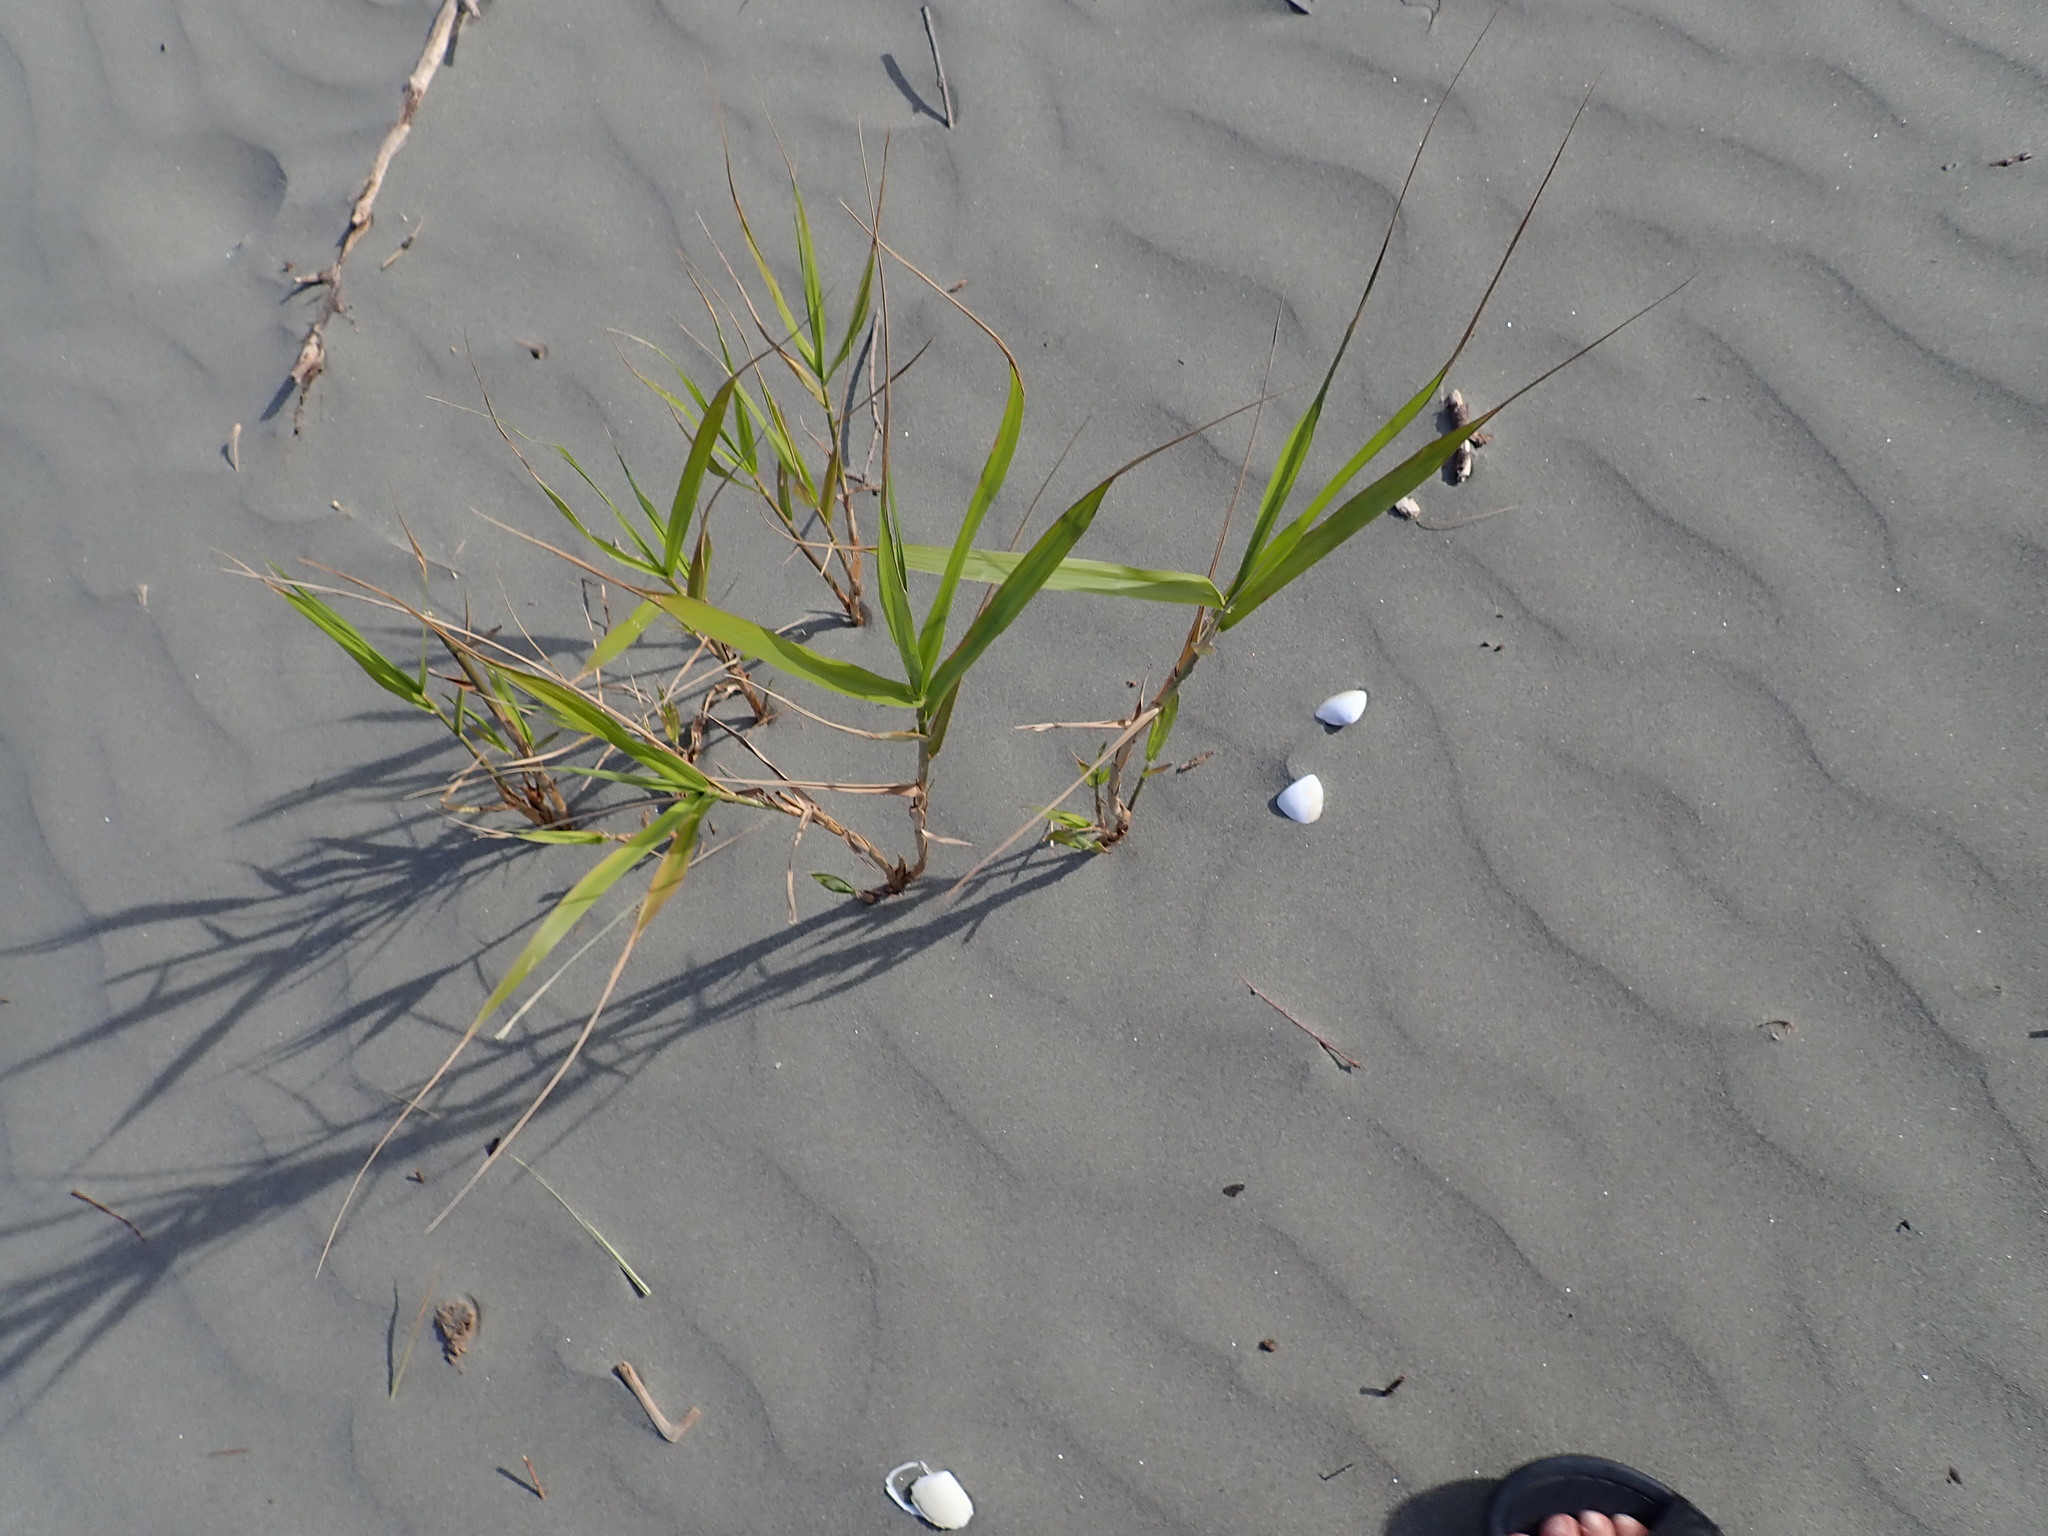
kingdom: Plantae
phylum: Tracheophyta
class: Liliopsida
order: Poales
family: Poaceae
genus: Phragmites
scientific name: Phragmites karka
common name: Tropical reed
